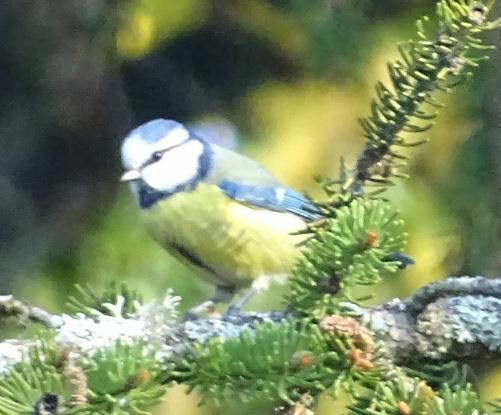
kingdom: Animalia
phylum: Chordata
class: Aves
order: Passeriformes
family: Paridae
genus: Cyanistes
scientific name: Cyanistes caeruleus
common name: Eurasian blue tit
